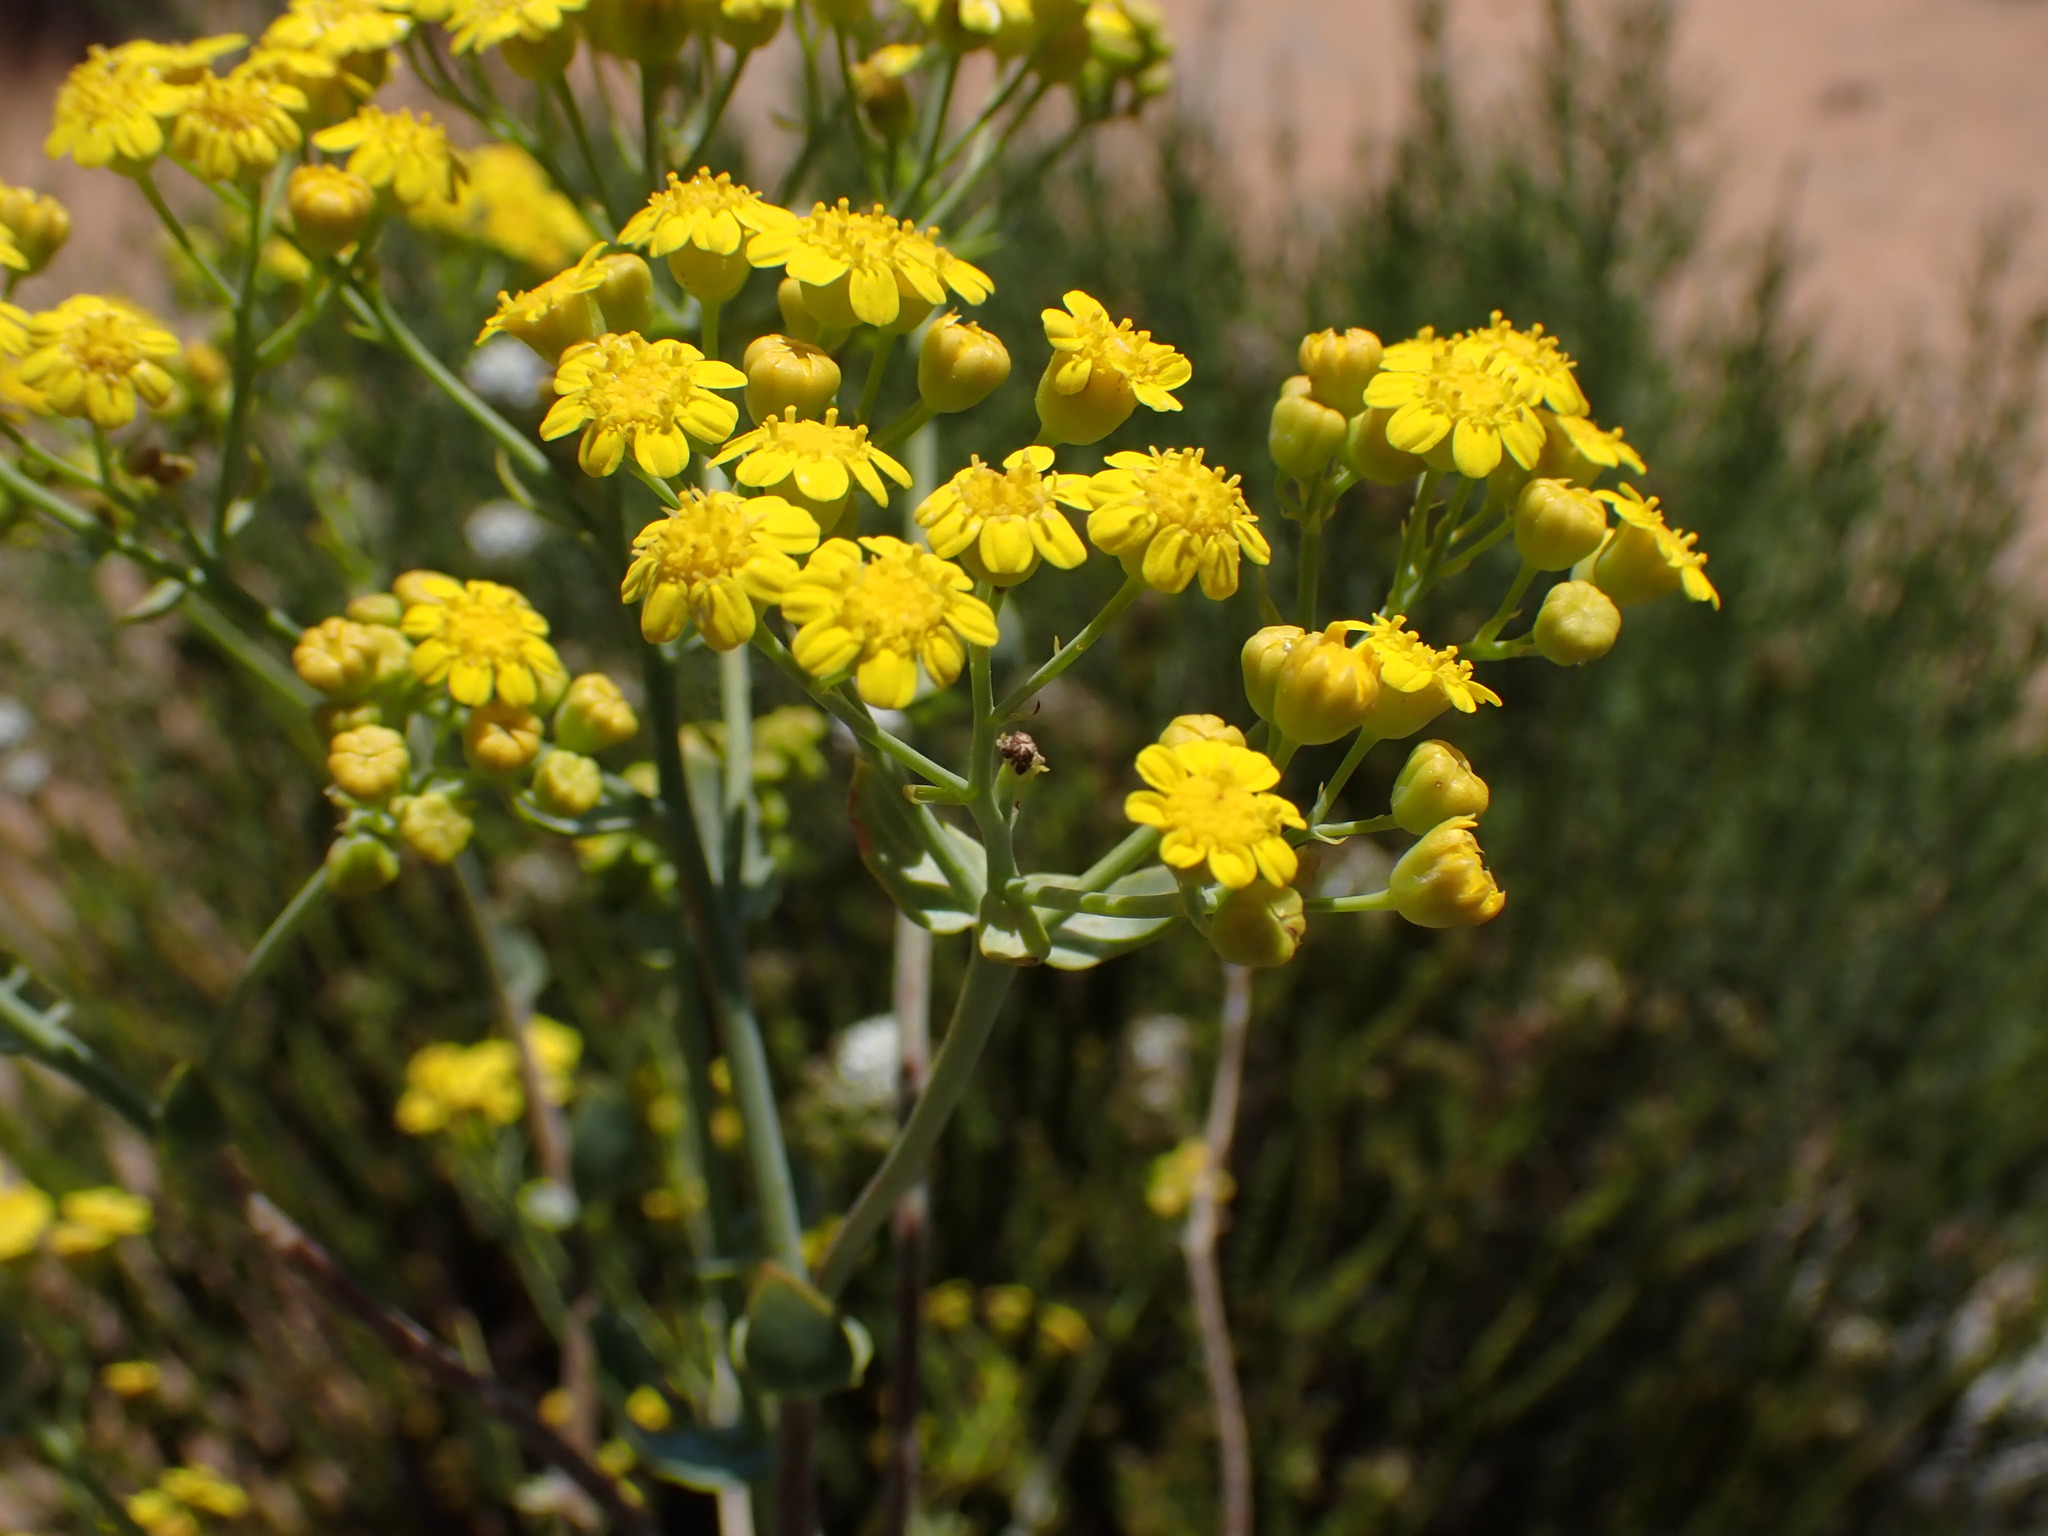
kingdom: Plantae
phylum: Tracheophyta
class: Magnoliopsida
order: Asterales
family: Asteraceae
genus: Othonna
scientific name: Othonna parviflora
